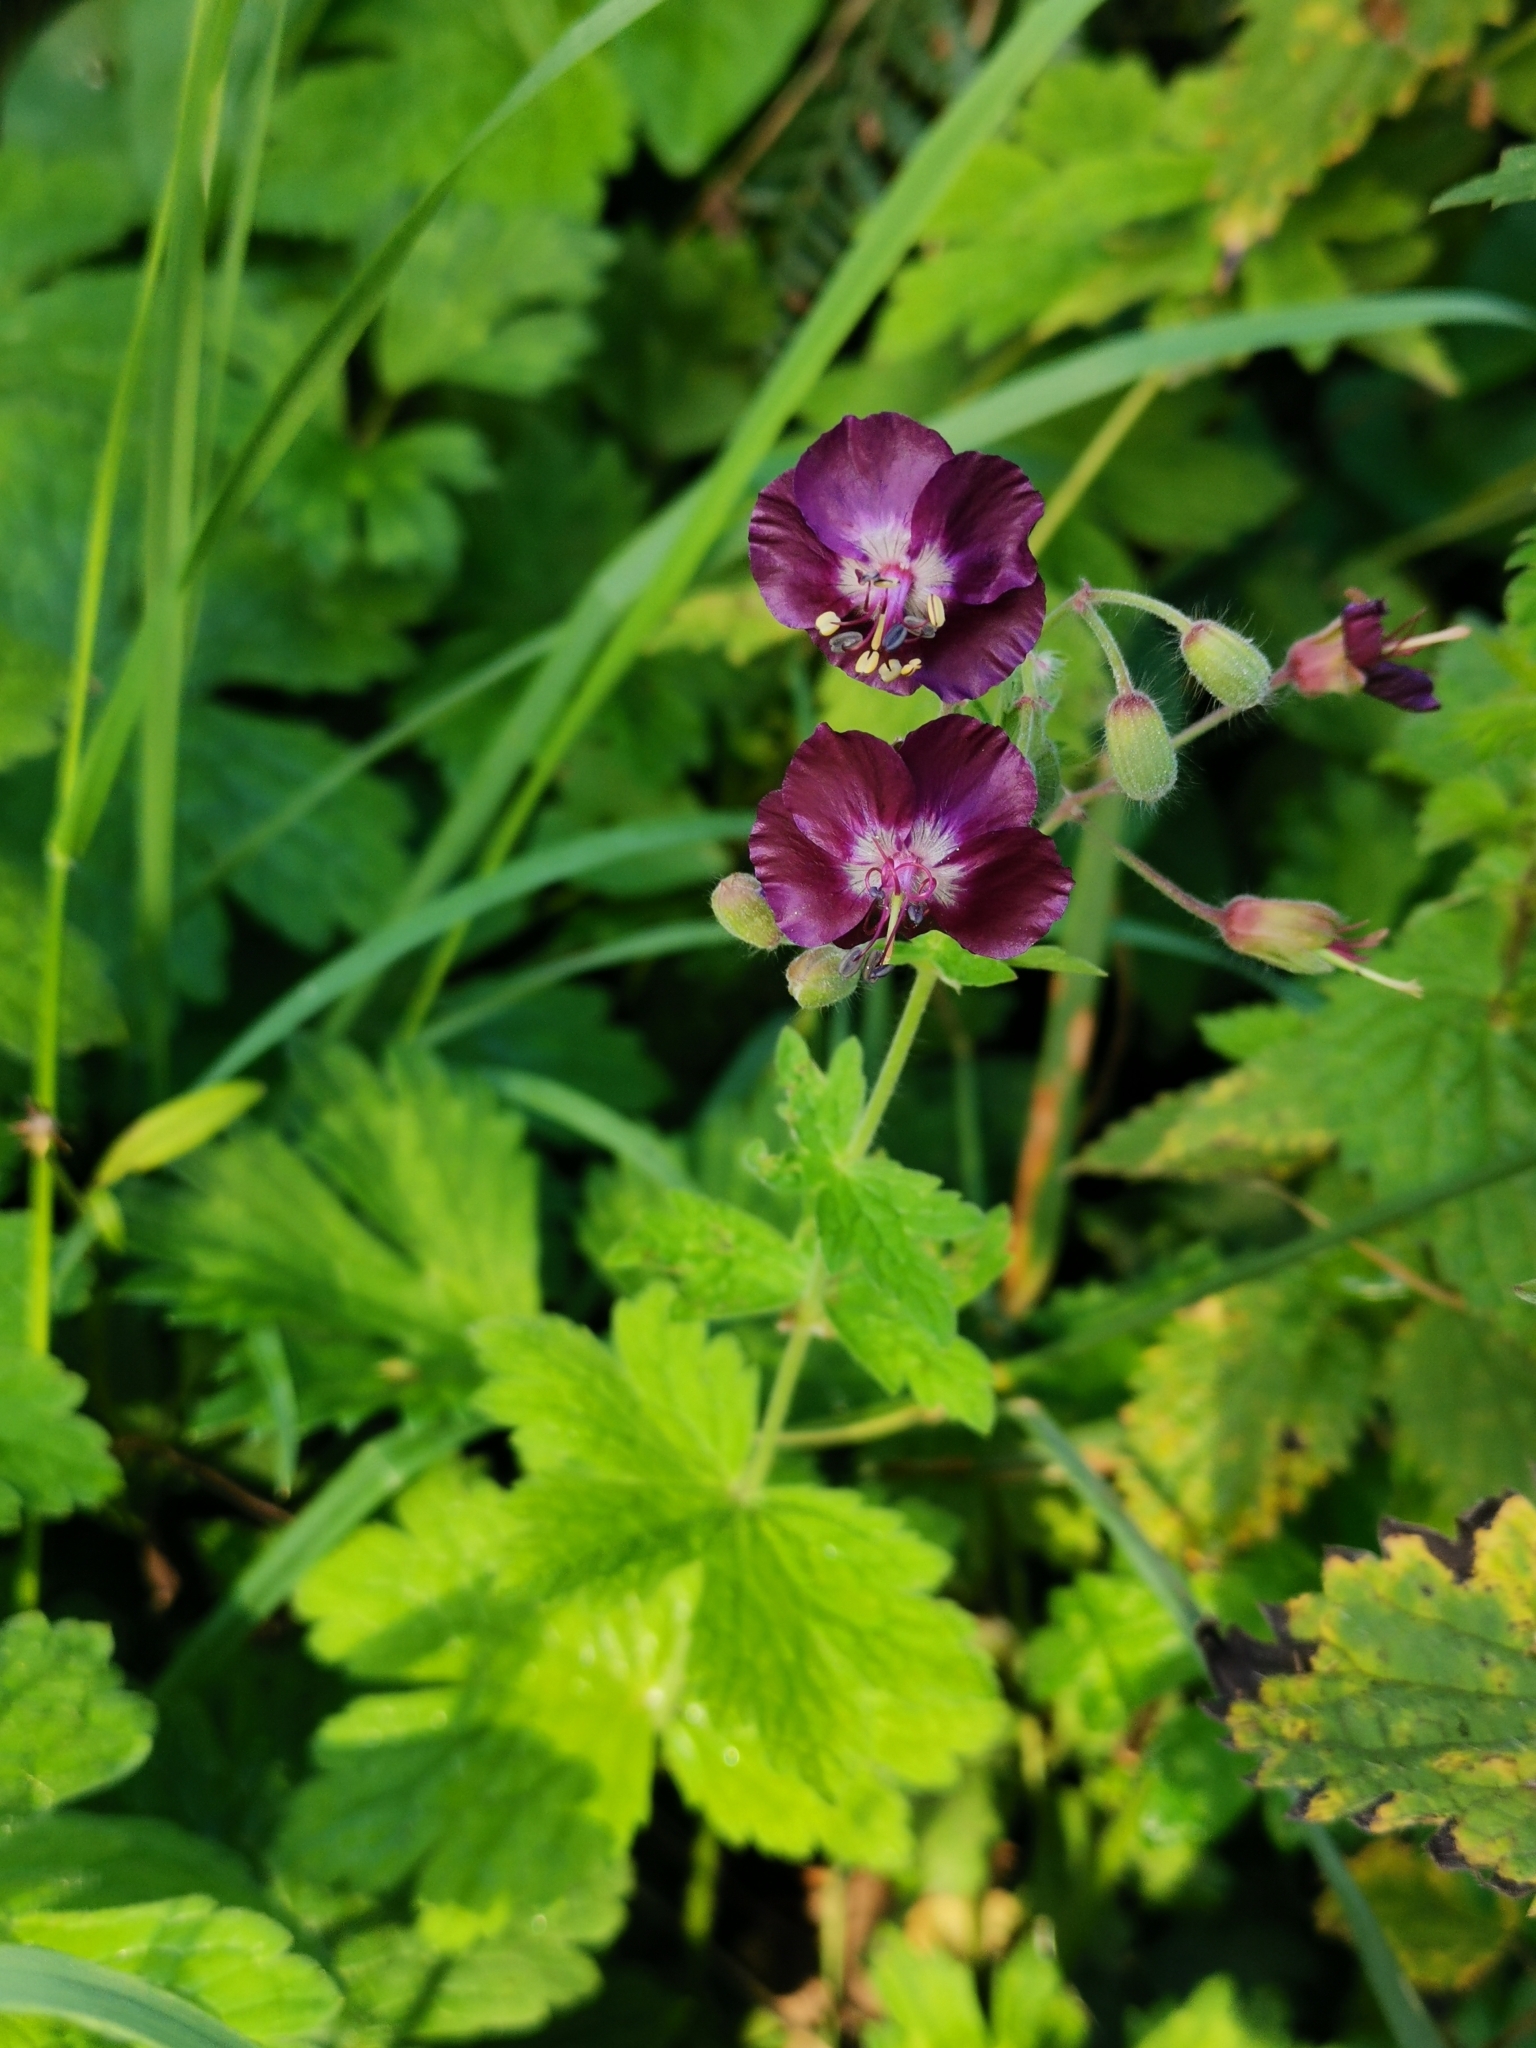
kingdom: Plantae
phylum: Tracheophyta
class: Magnoliopsida
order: Geraniales
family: Geraniaceae
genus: Geranium
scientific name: Geranium phaeum
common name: Dusky crane's-bill
